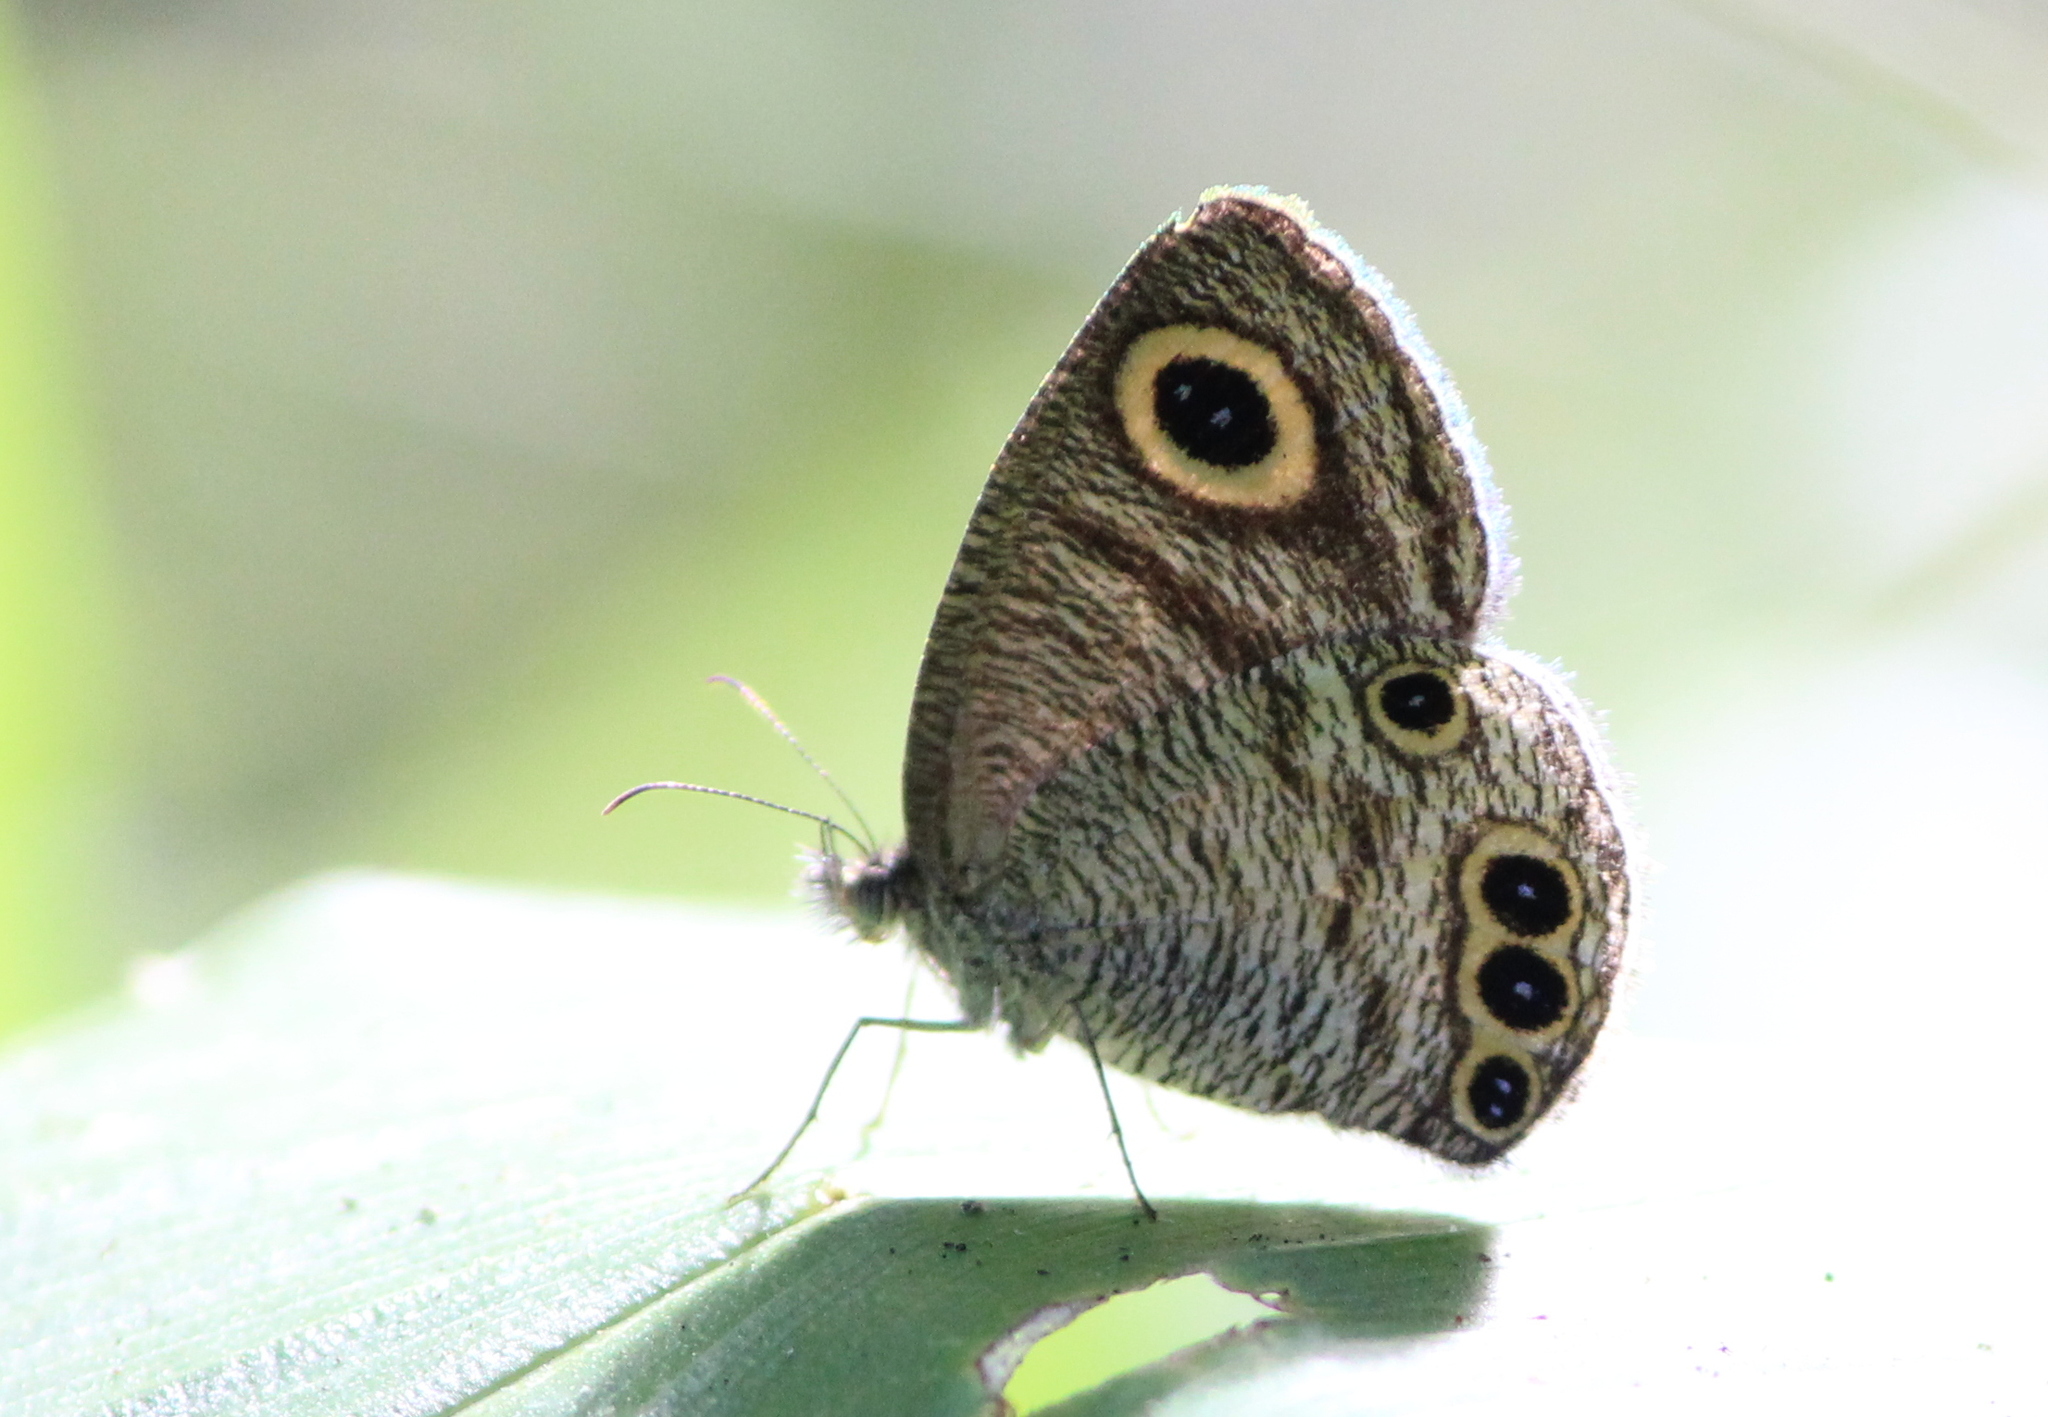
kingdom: Animalia
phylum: Arthropoda
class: Insecta
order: Lepidoptera
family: Nymphalidae
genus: Ypthima
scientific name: Ypthima huebneri
